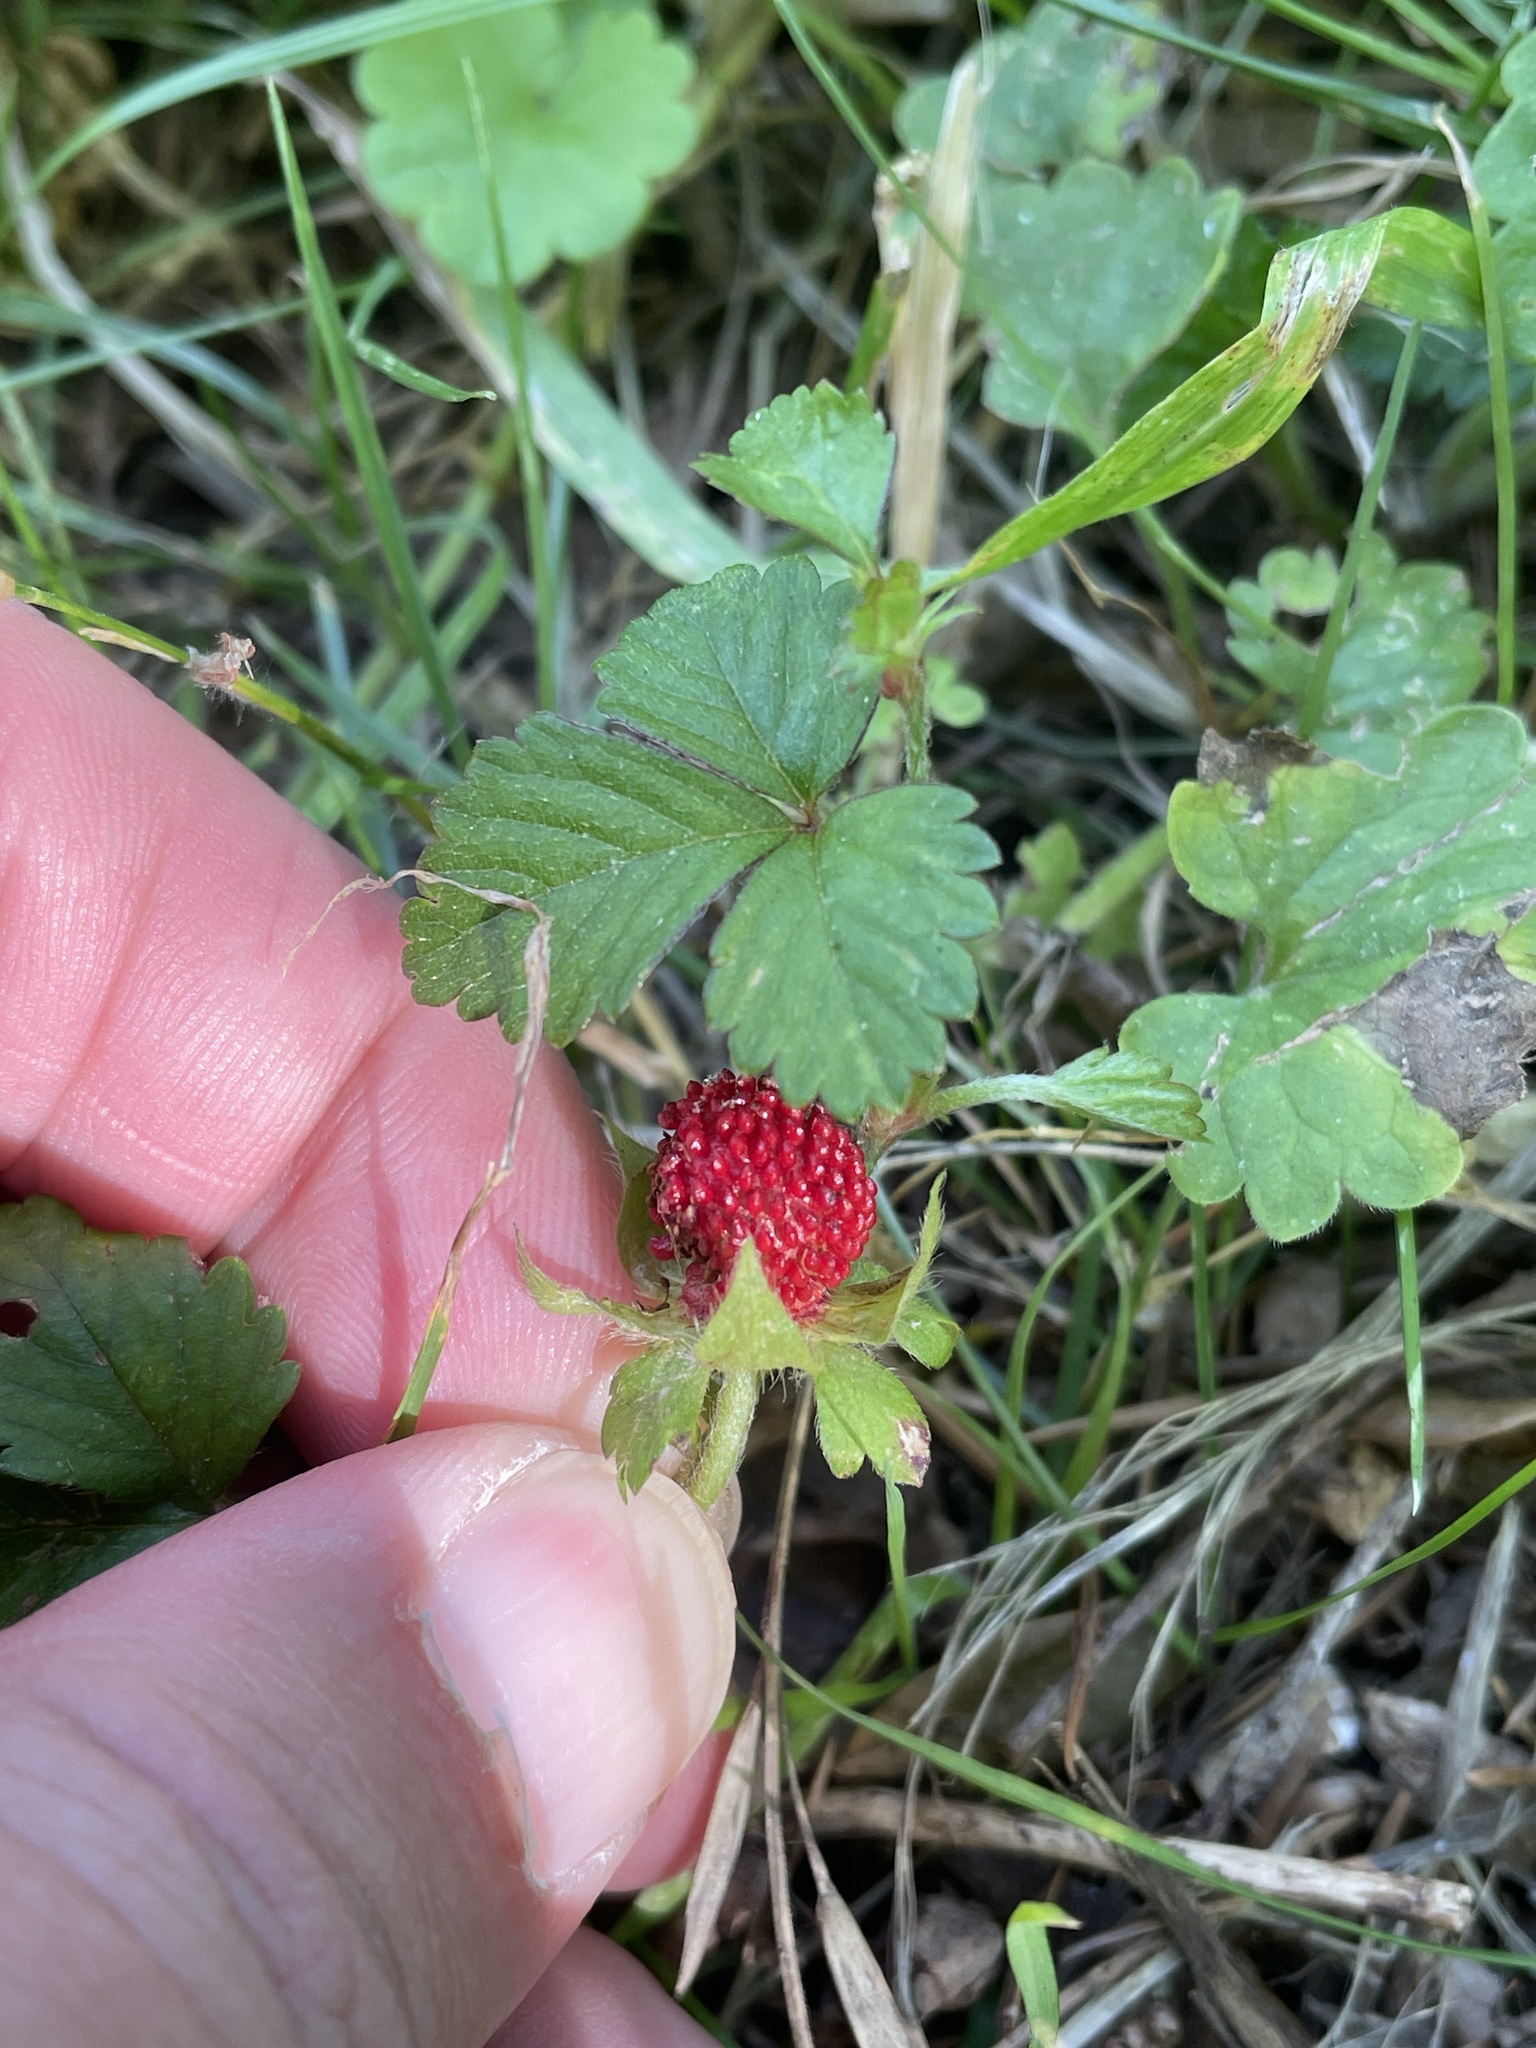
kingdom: Plantae
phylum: Tracheophyta
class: Magnoliopsida
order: Rosales
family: Rosaceae
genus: Potentilla
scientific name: Potentilla indica
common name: Yellow-flowered strawberry
